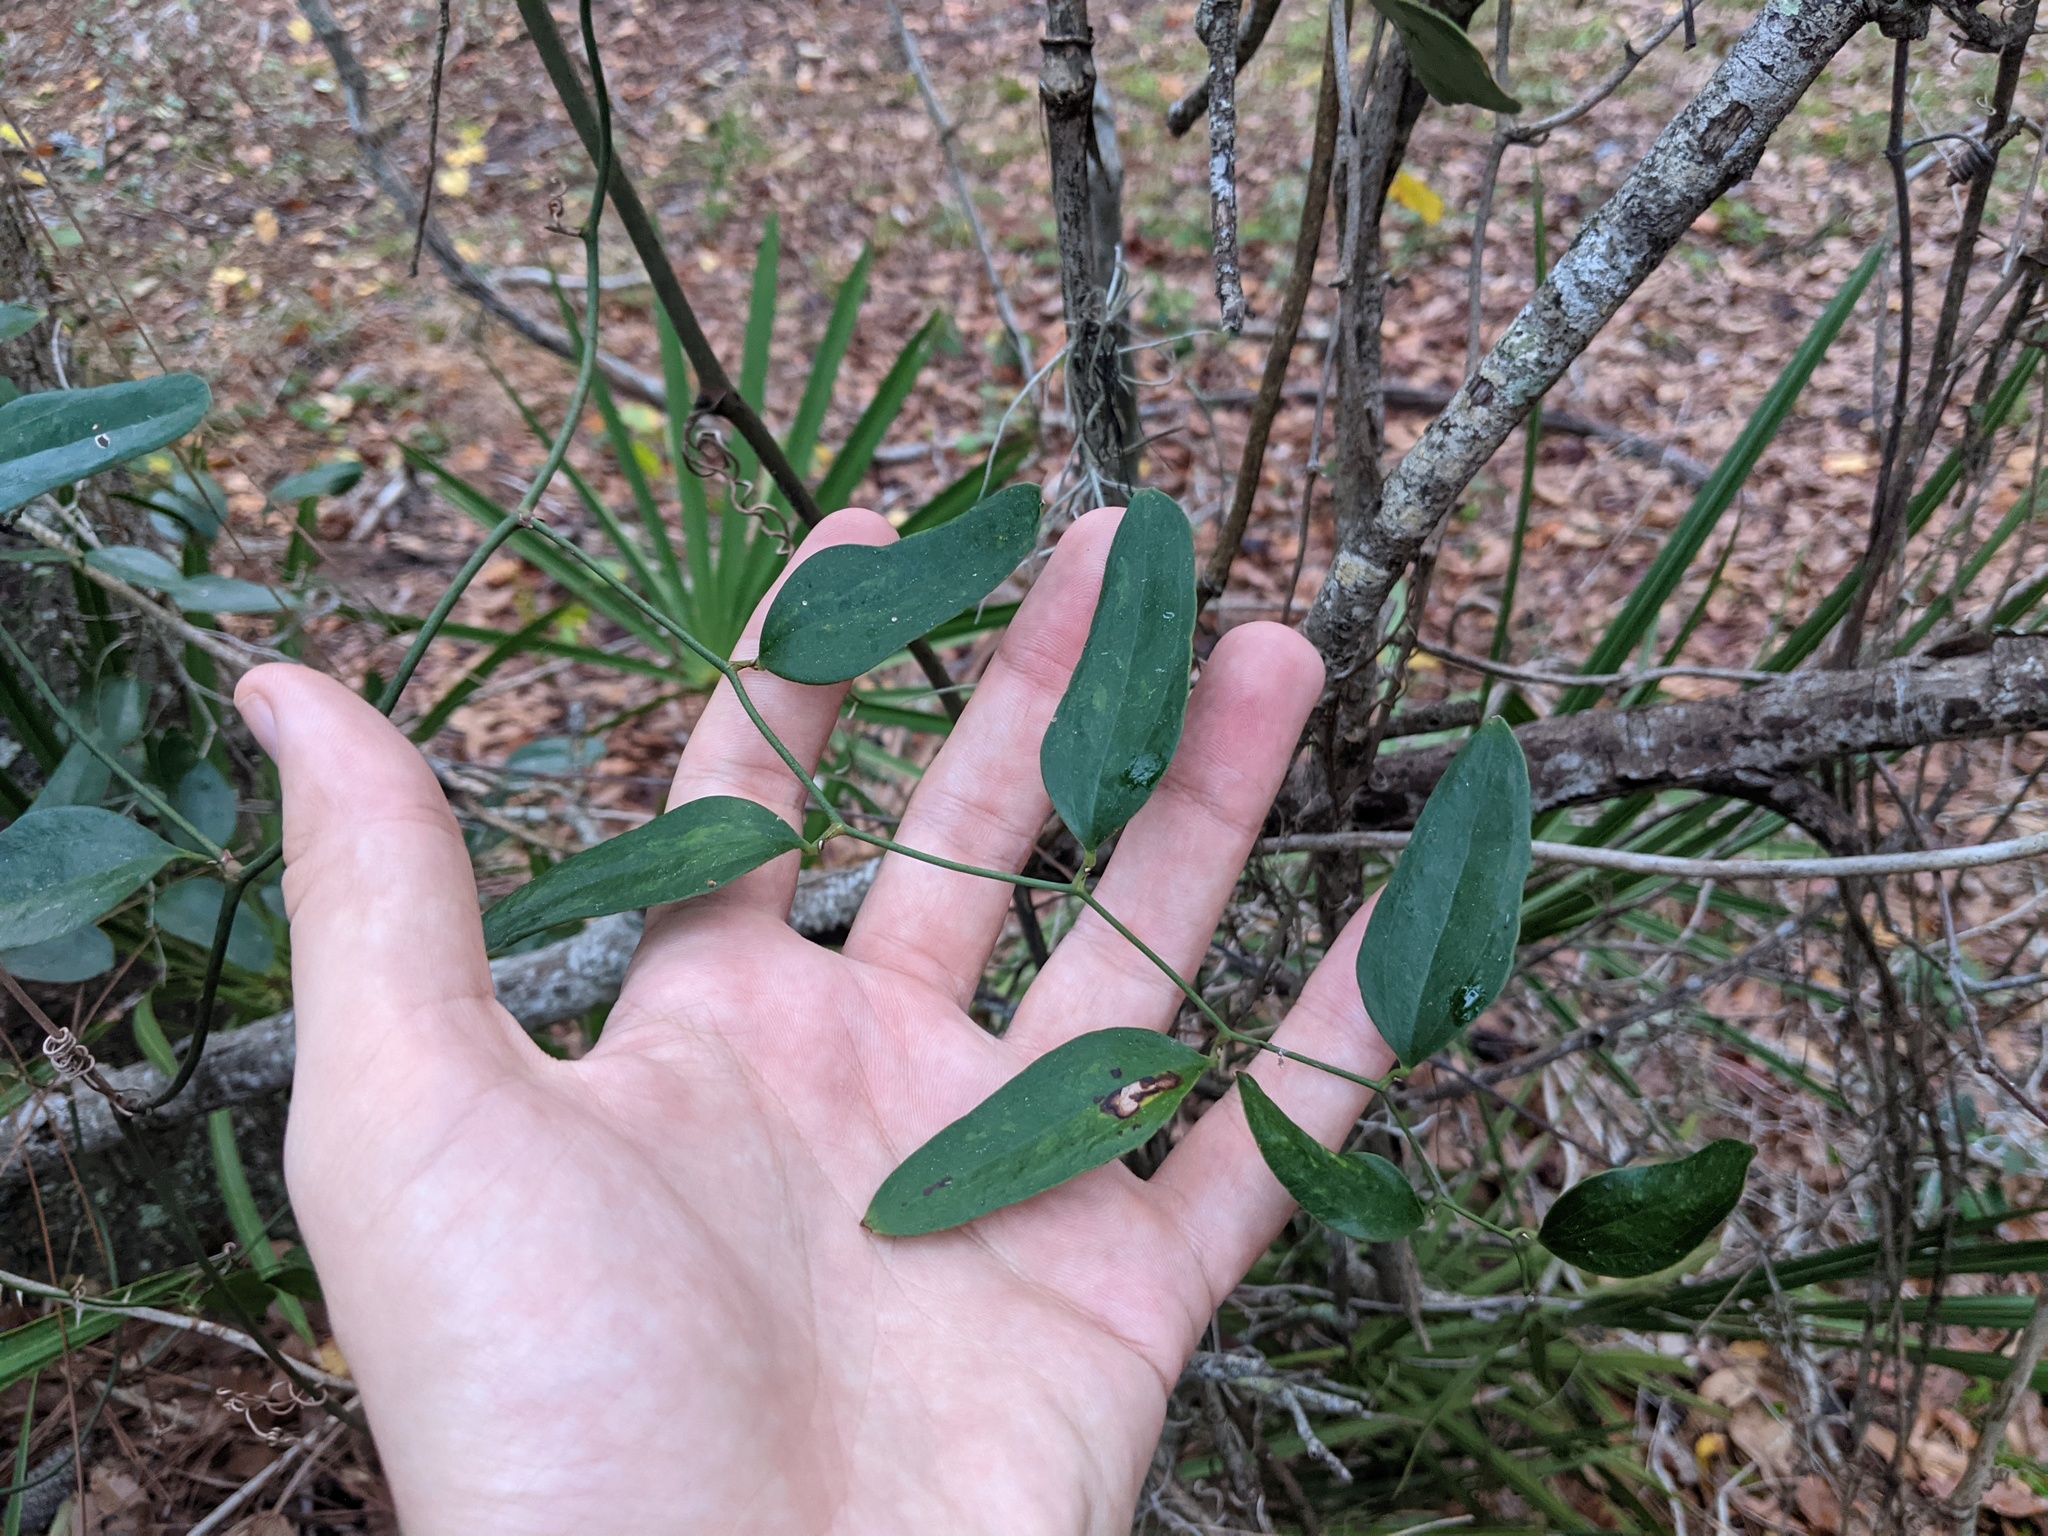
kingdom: Plantae
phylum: Tracheophyta
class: Liliopsida
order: Liliales
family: Smilacaceae
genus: Smilax
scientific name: Smilax auriculata
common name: Wild bamboo
